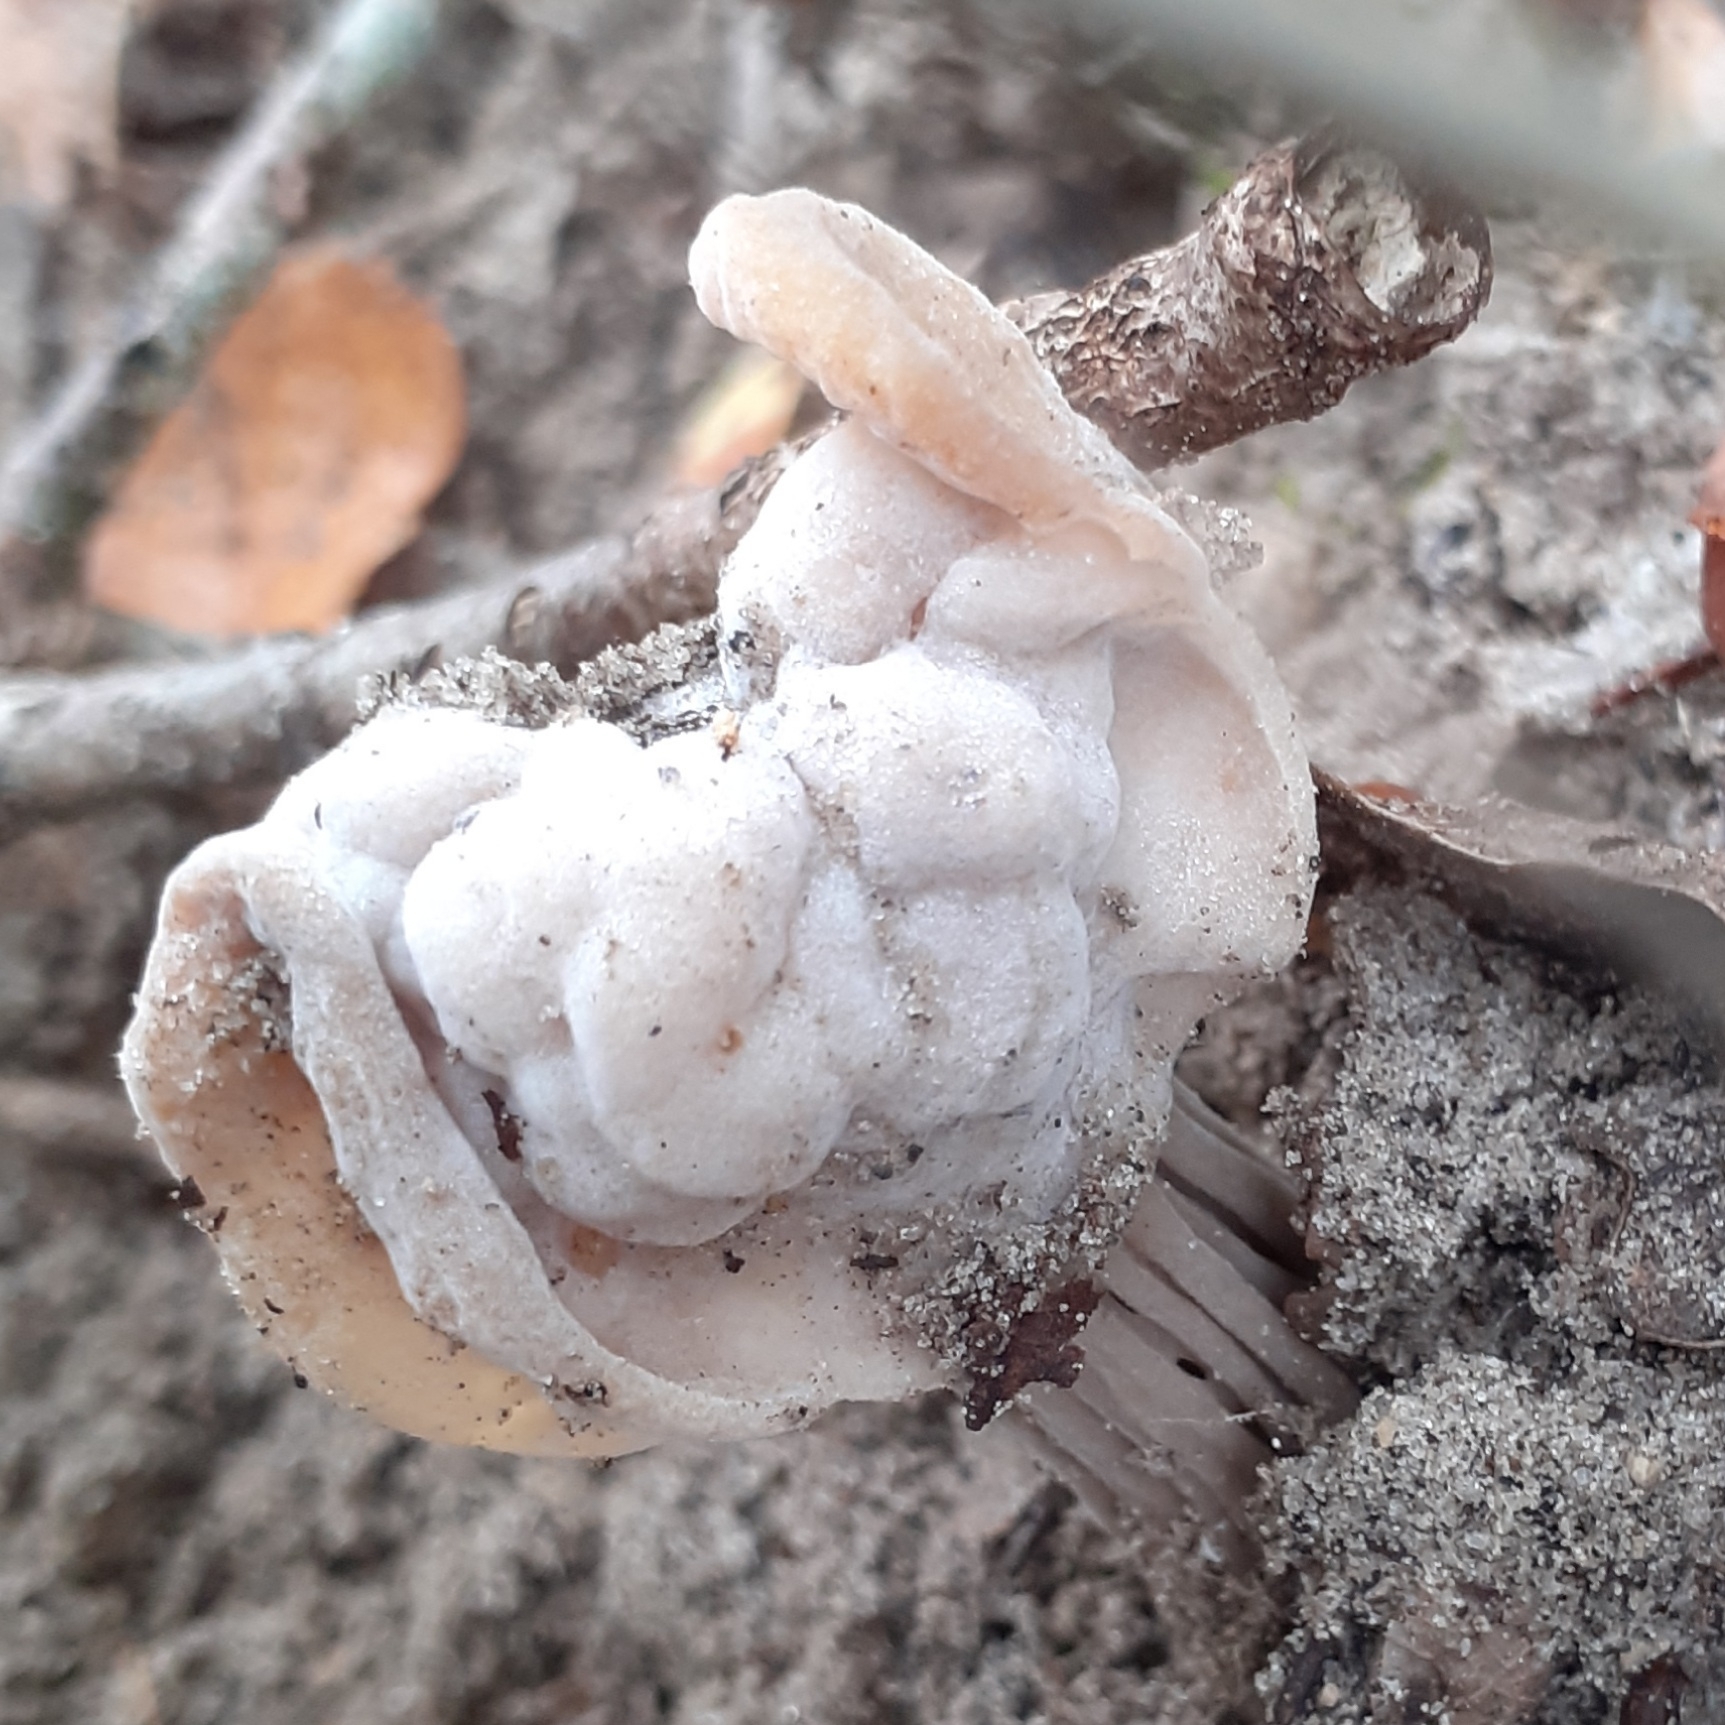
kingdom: Fungi
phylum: Ascomycota
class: Pezizomycetes
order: Pezizales
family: Helvellaceae
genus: Helvella
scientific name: Helvella crispa
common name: White saddle
